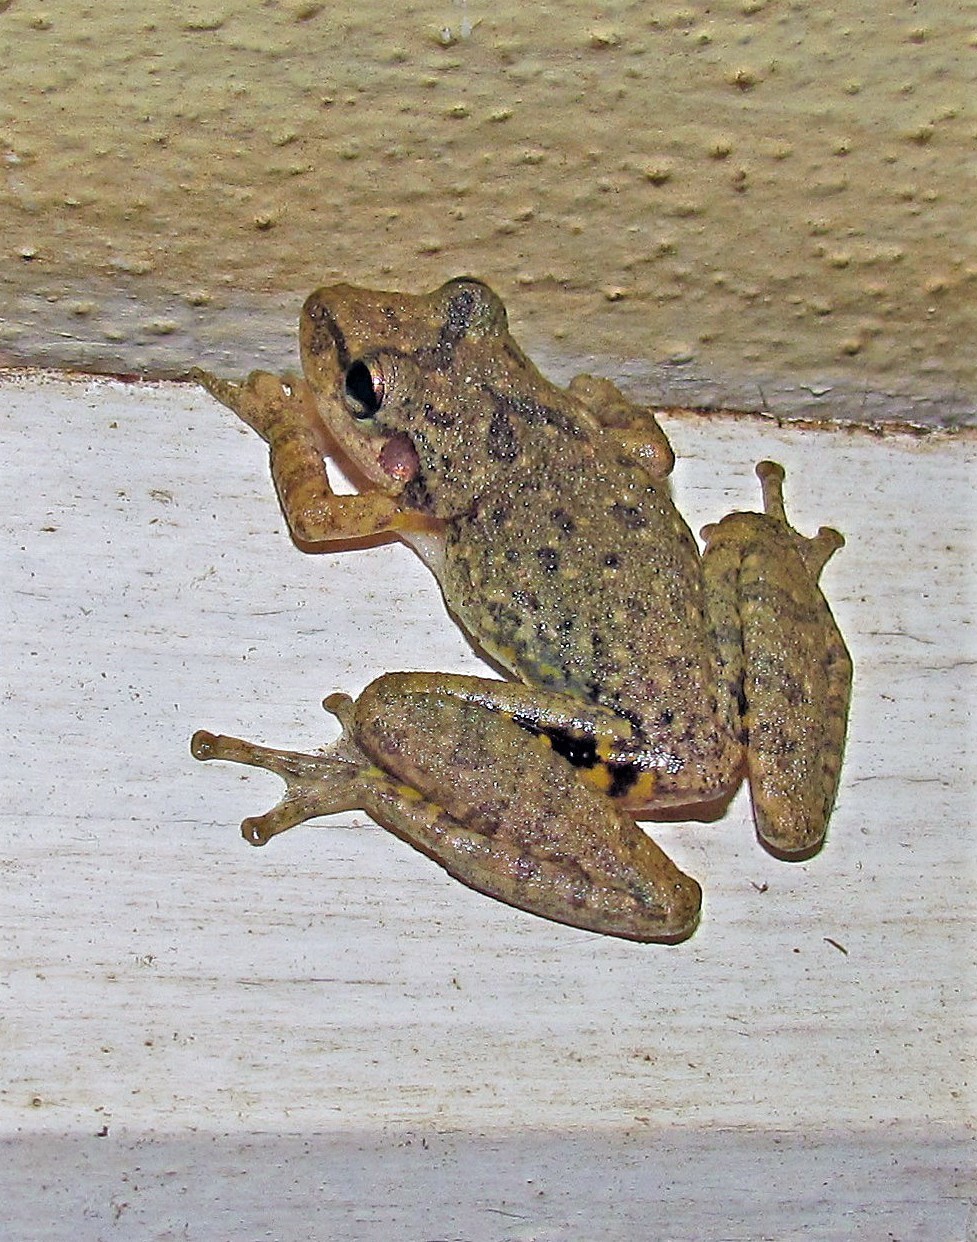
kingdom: Animalia
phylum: Chordata
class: Amphibia
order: Anura
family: Hylidae
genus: Scinax
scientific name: Scinax fuscovarius
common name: Fuscous-blotched treefrog
